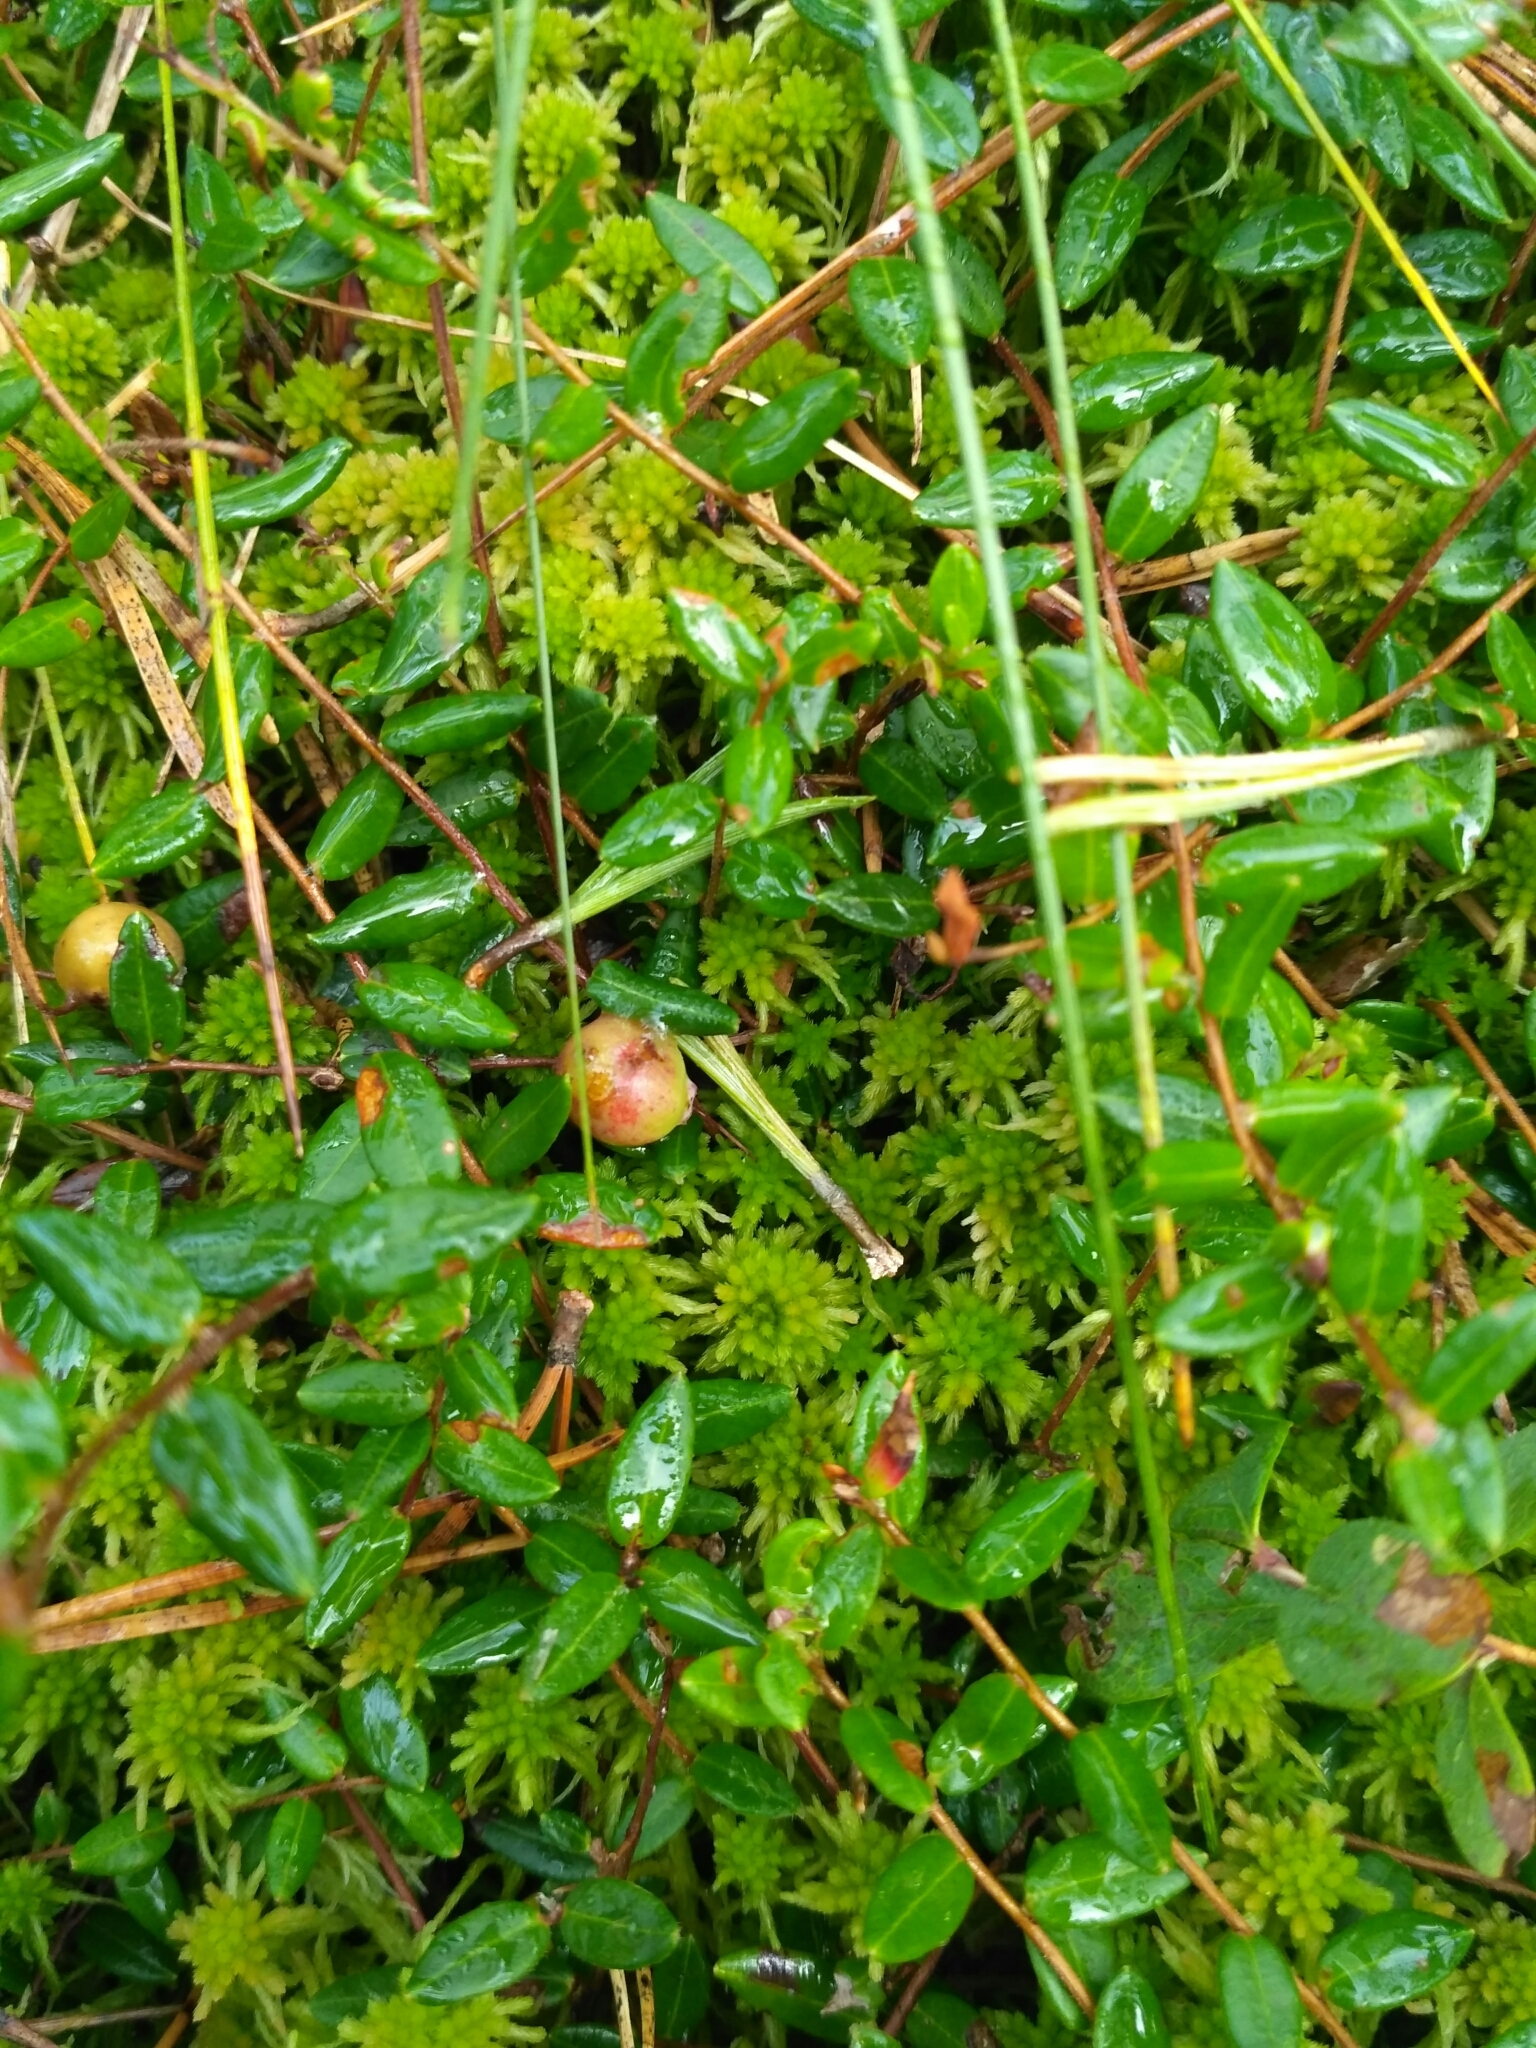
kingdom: Plantae
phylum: Tracheophyta
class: Magnoliopsida
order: Ericales
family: Ericaceae
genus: Vaccinium
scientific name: Vaccinium oxycoccos
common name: Cranberry
